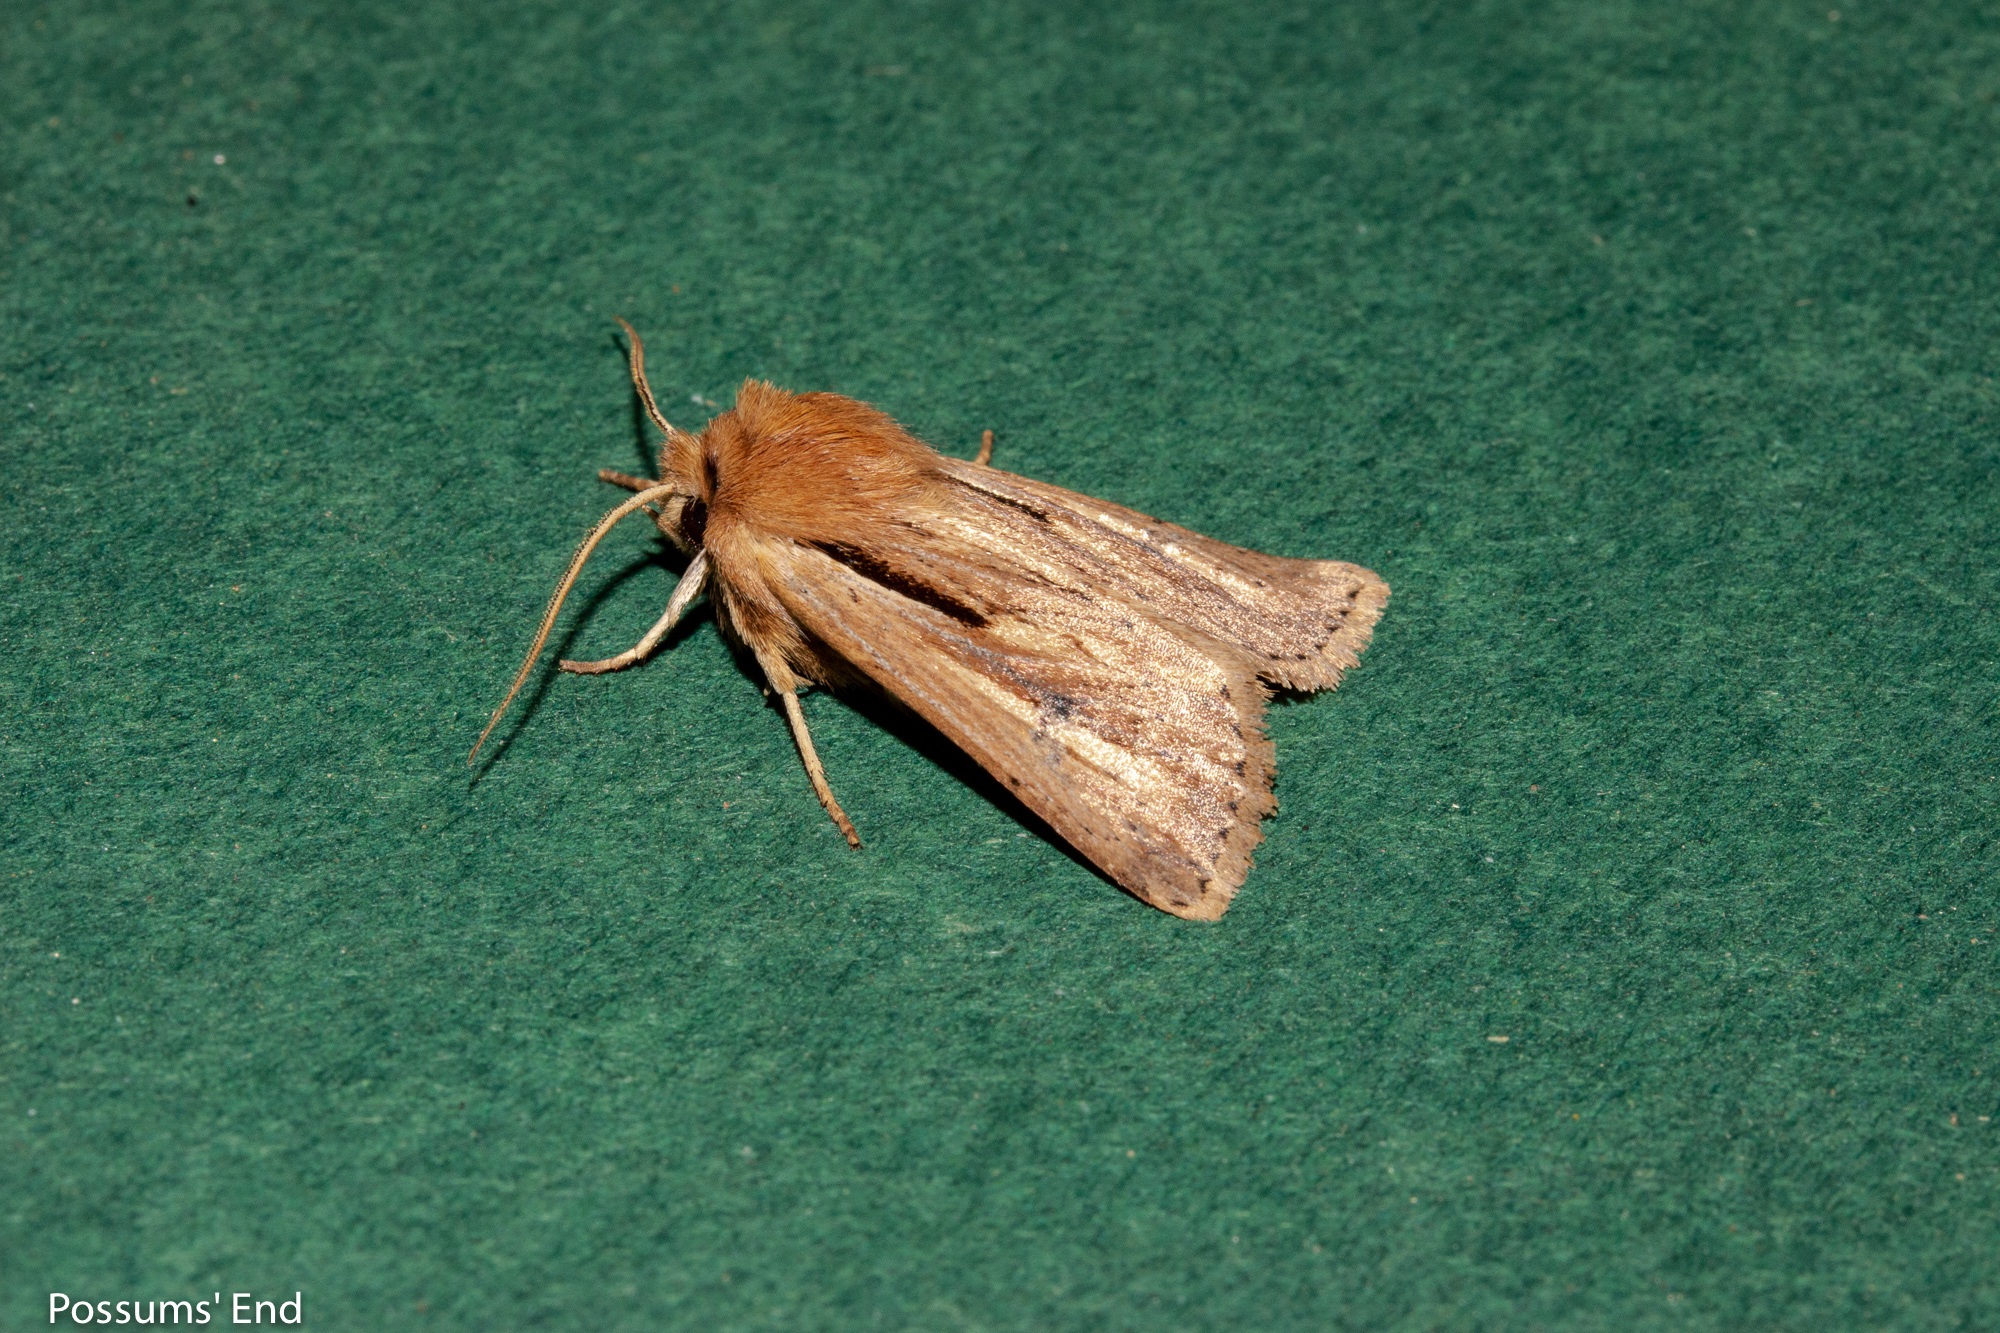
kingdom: Animalia
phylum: Arthropoda
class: Insecta
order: Lepidoptera
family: Noctuidae
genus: Ichneutica
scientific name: Ichneutica propria
